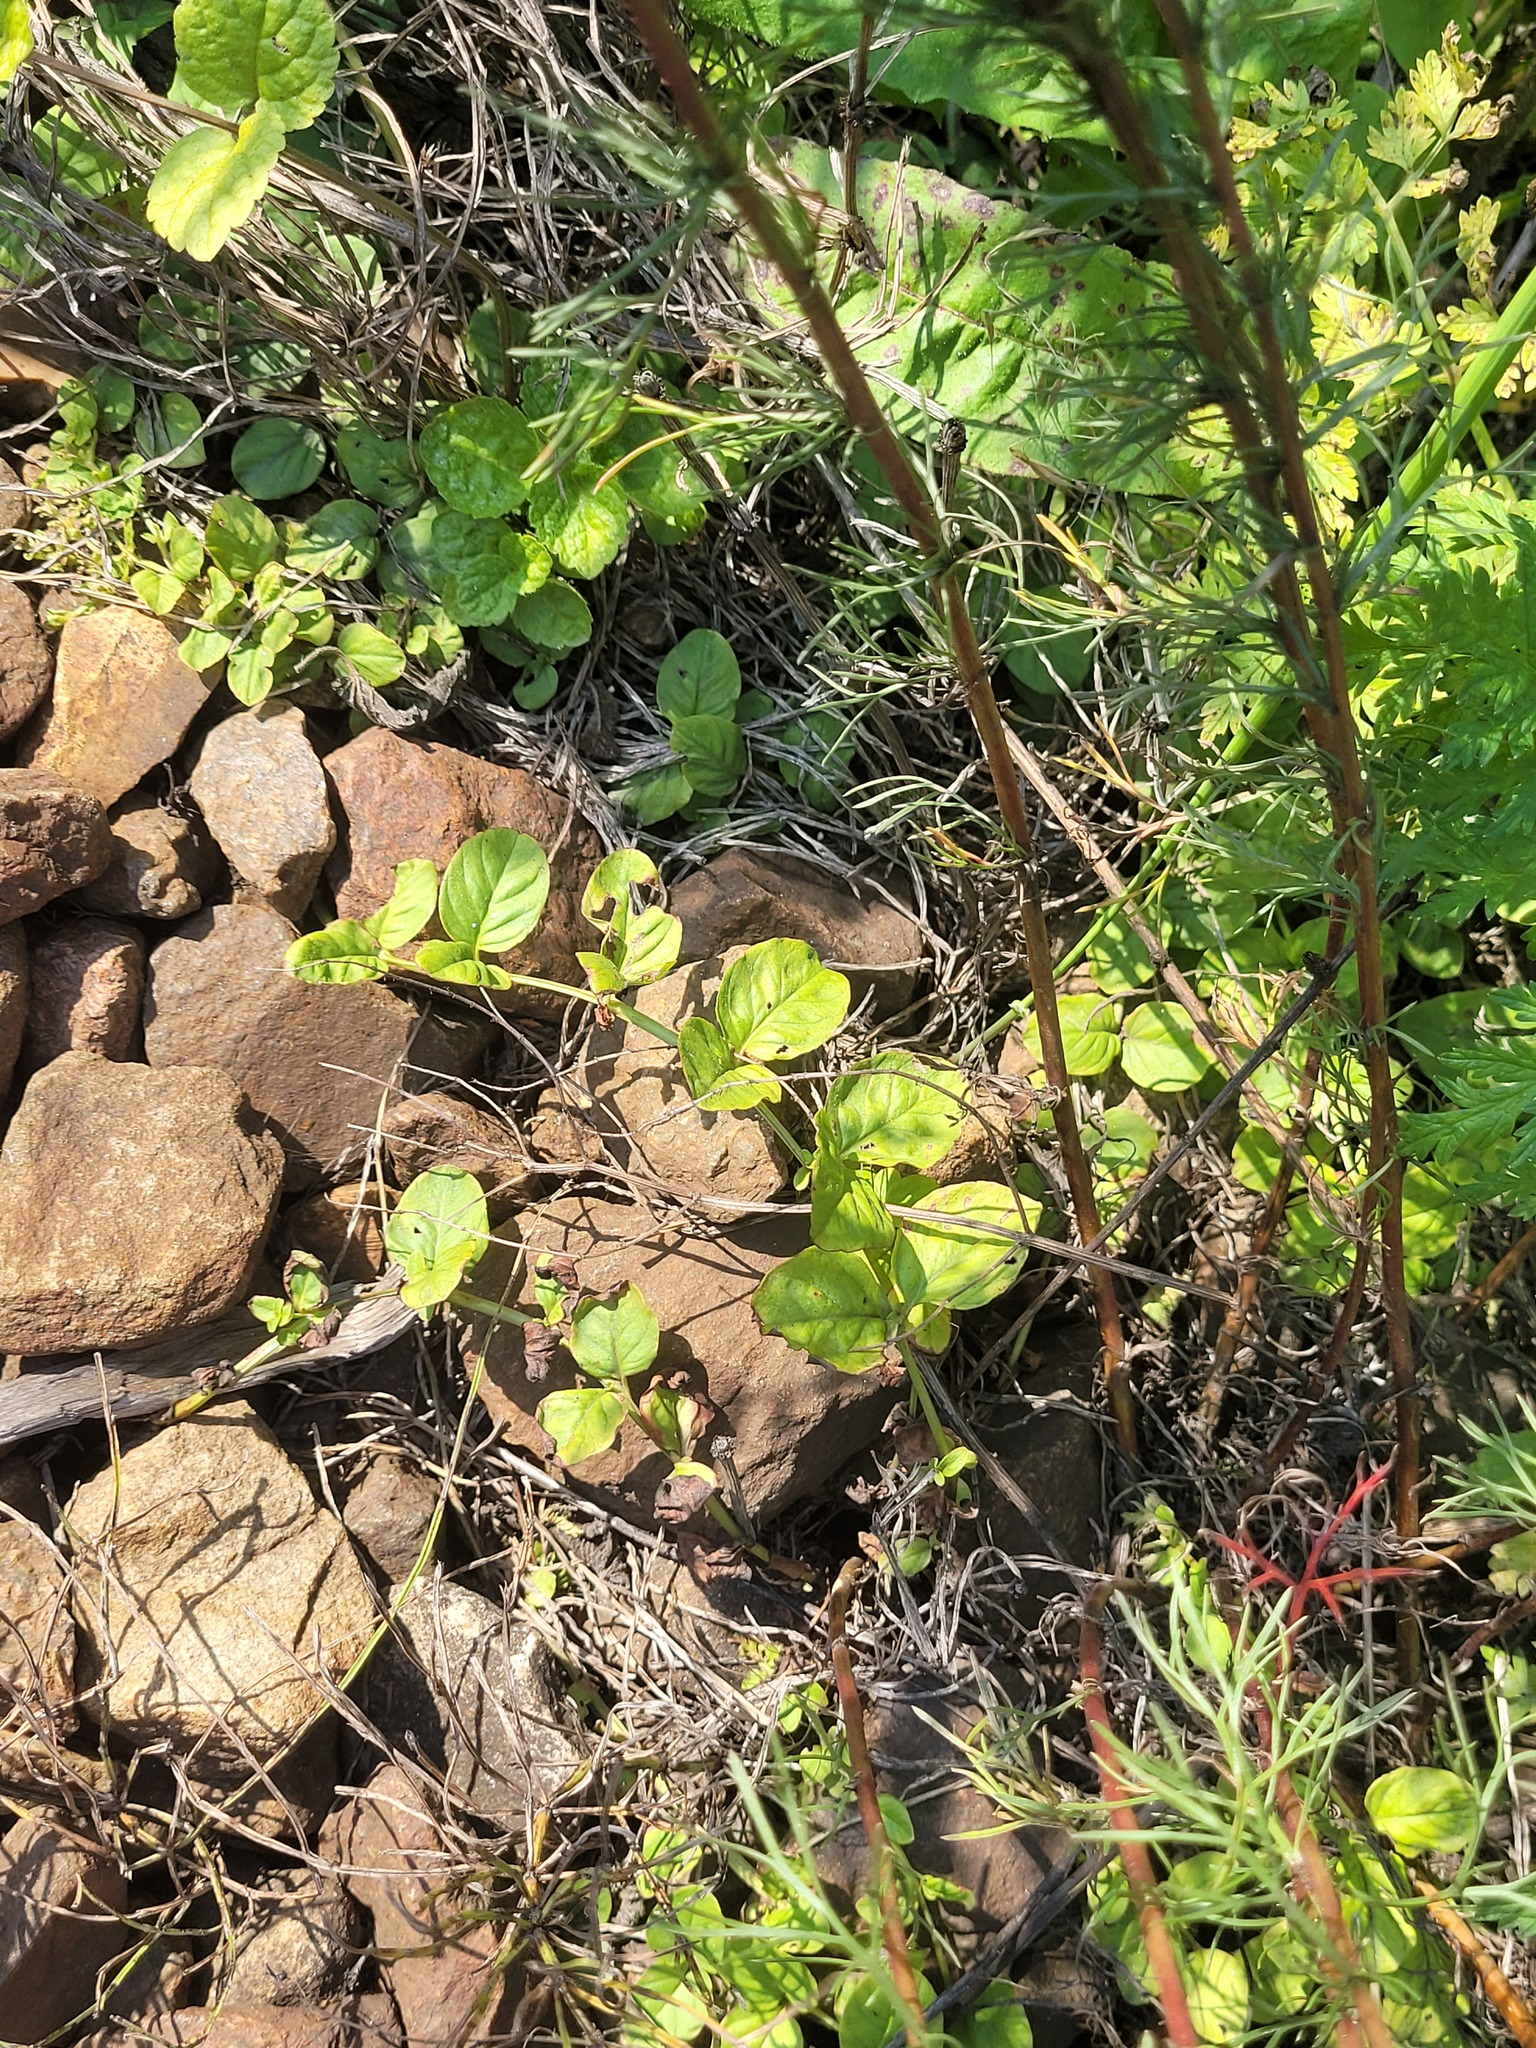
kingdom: Plantae
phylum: Tracheophyta
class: Magnoliopsida
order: Ericales
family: Primulaceae
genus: Lysimachia
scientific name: Lysimachia nummularia
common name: Moneywort
